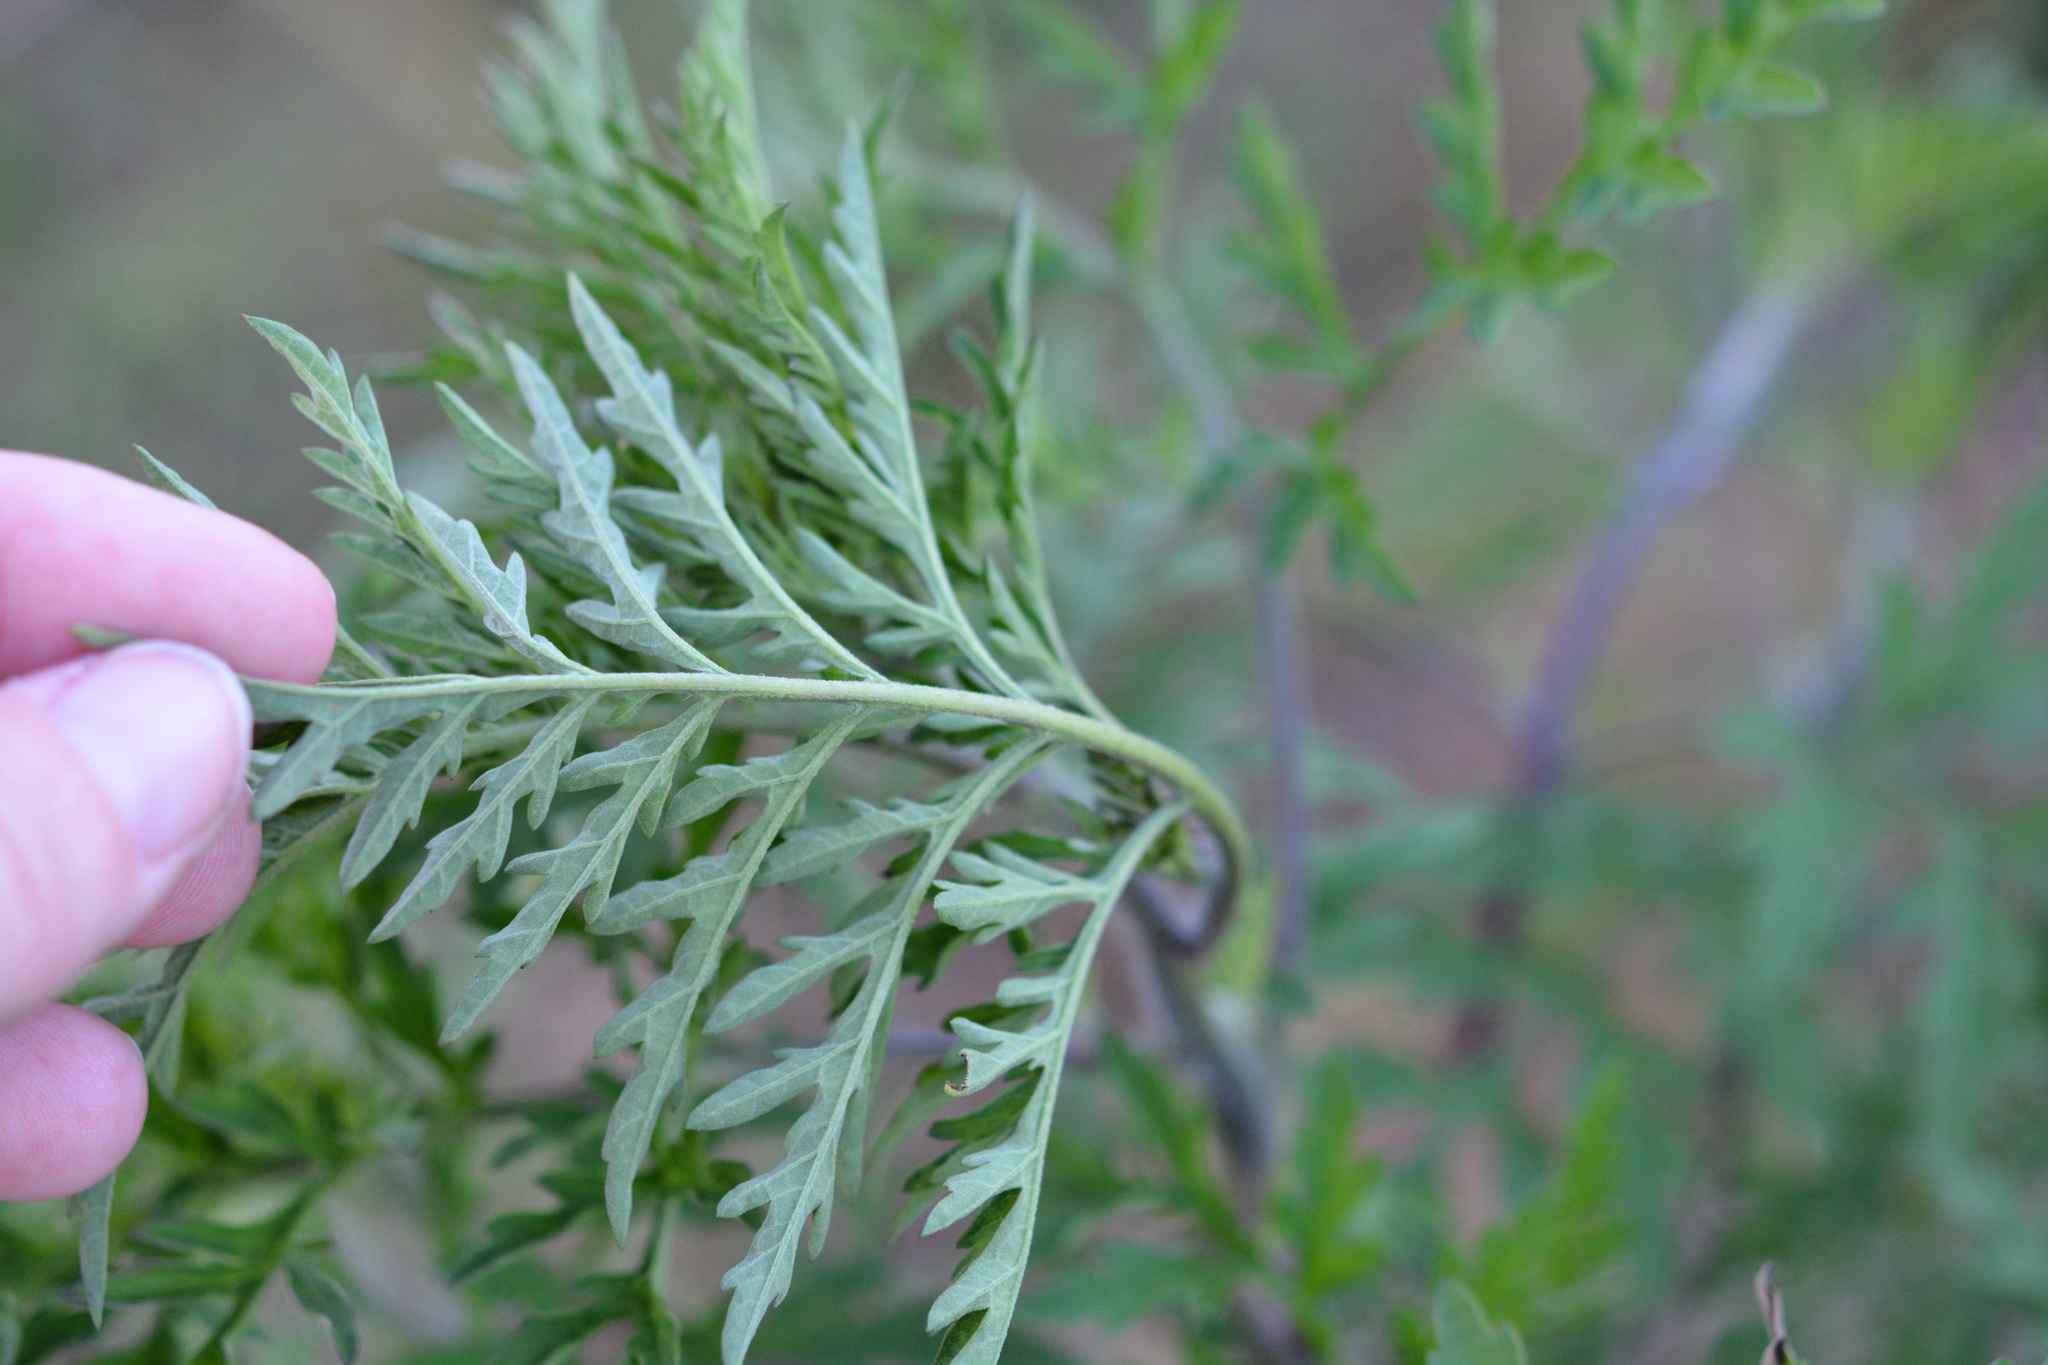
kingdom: Plantae
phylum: Tracheophyta
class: Magnoliopsida
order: Asterales
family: Asteraceae
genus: Ambrosia
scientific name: Ambrosia artemisiifolia
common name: Annual ragweed
